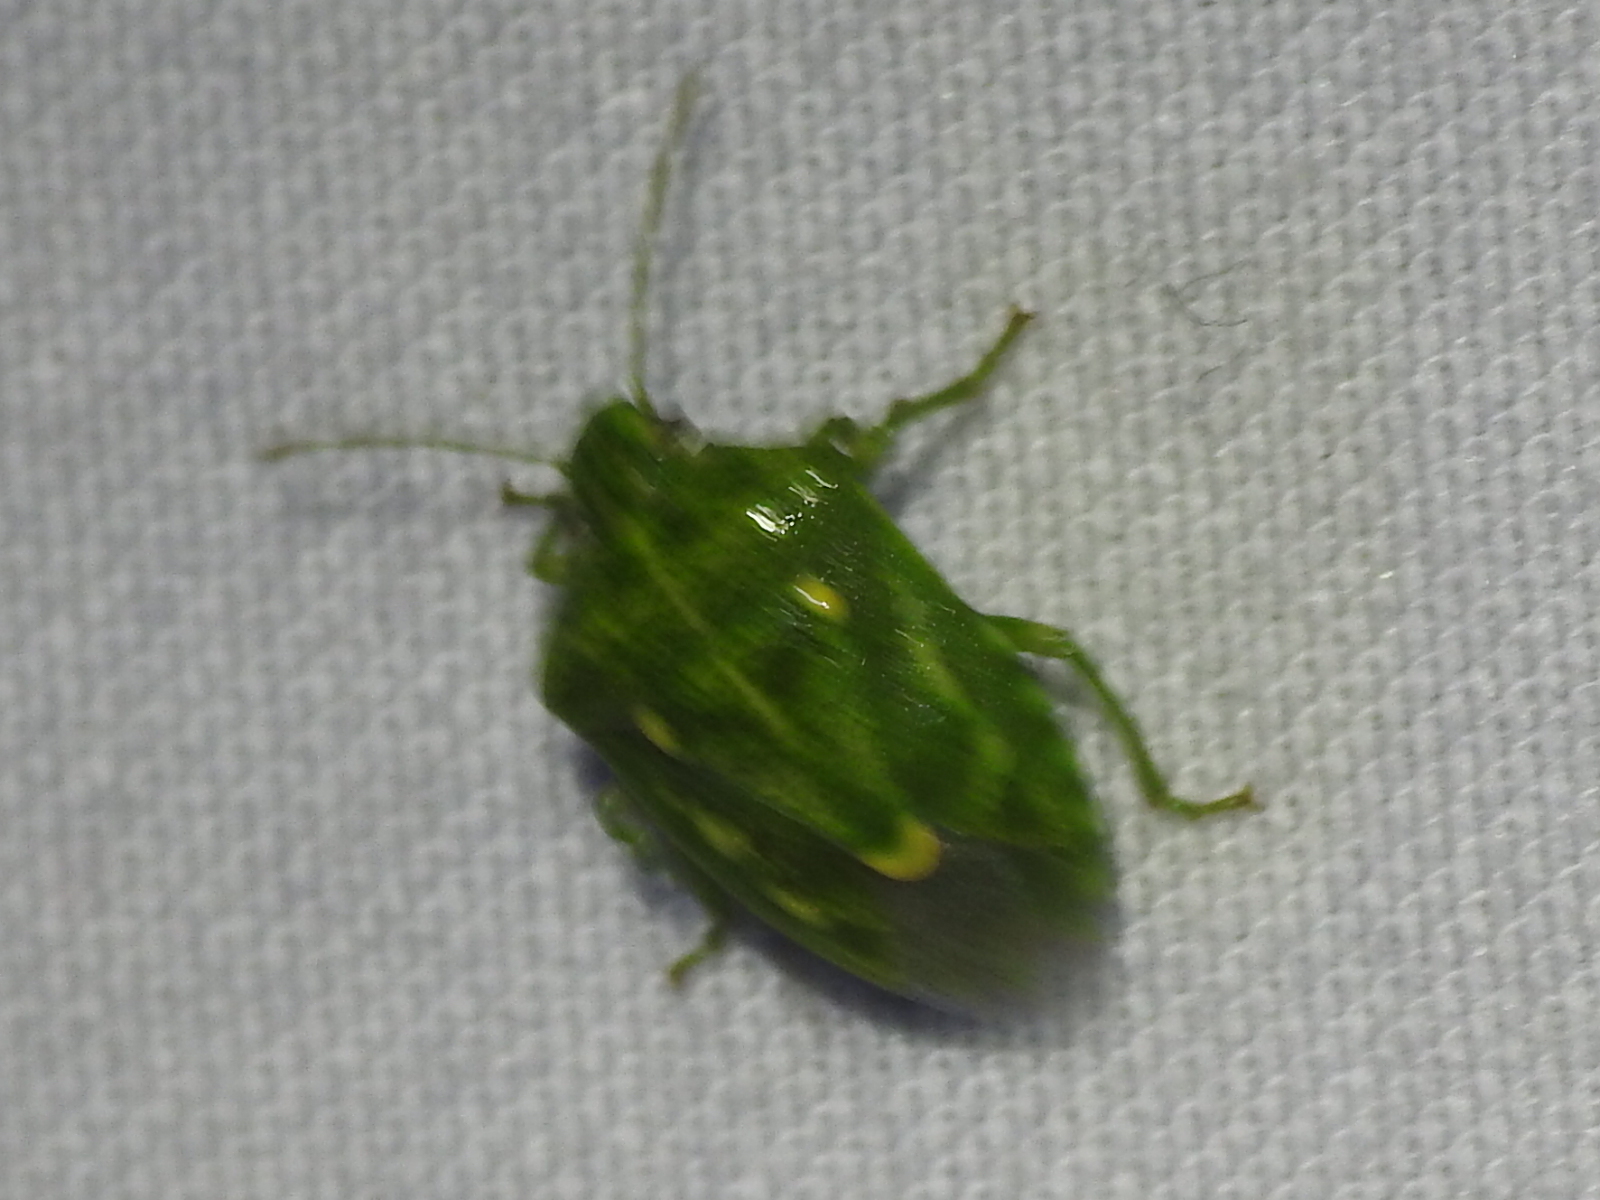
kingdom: Animalia
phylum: Arthropoda
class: Insecta
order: Hemiptera
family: Pentatomidae
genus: Banasa
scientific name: Banasa euchlora
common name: Cedar berry bug
